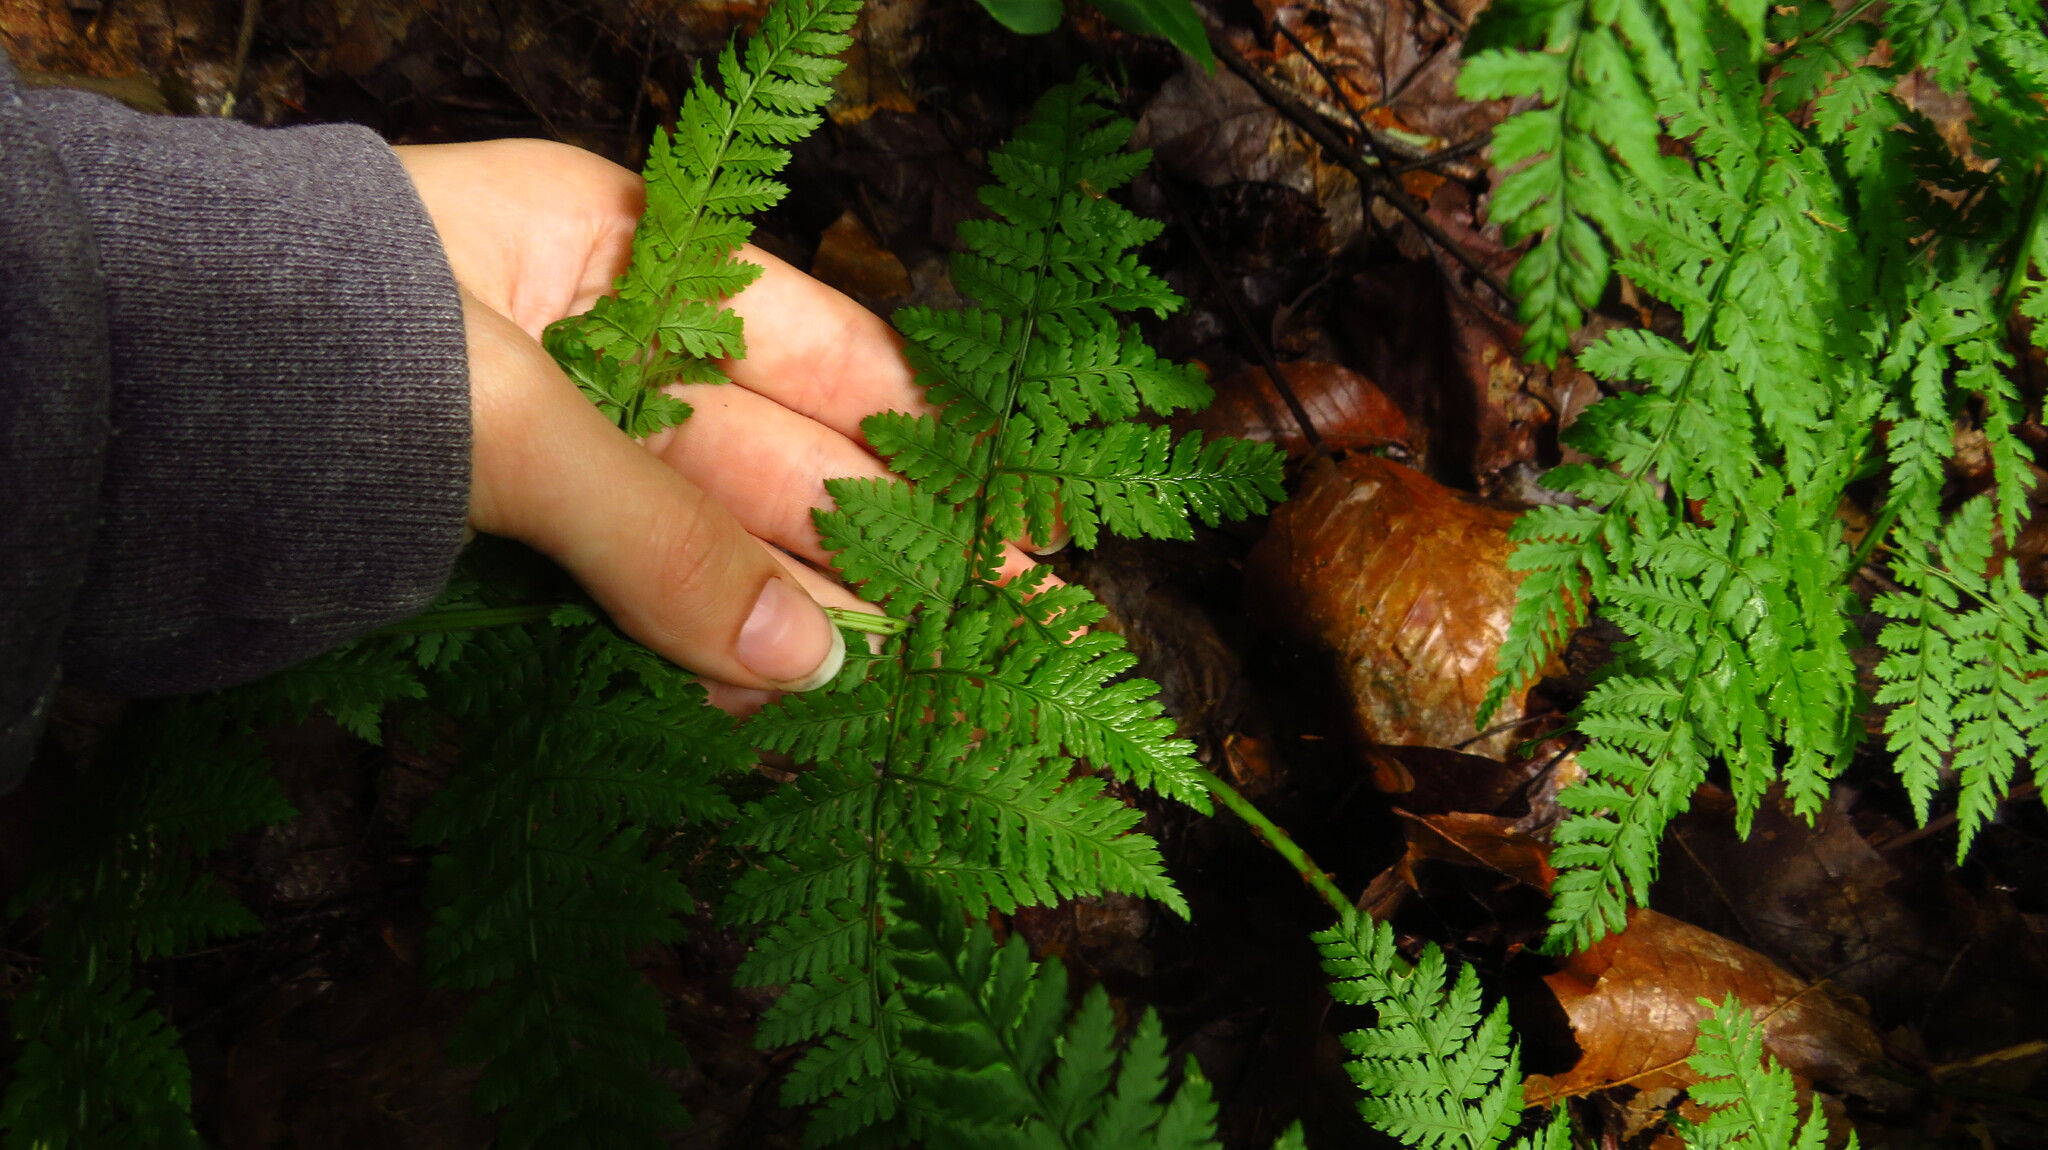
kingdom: Plantae
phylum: Tracheophyta
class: Polypodiopsida
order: Polypodiales
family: Dryopteridaceae
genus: Dryopteris
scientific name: Dryopteris intermedia
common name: Evergreen wood fern
